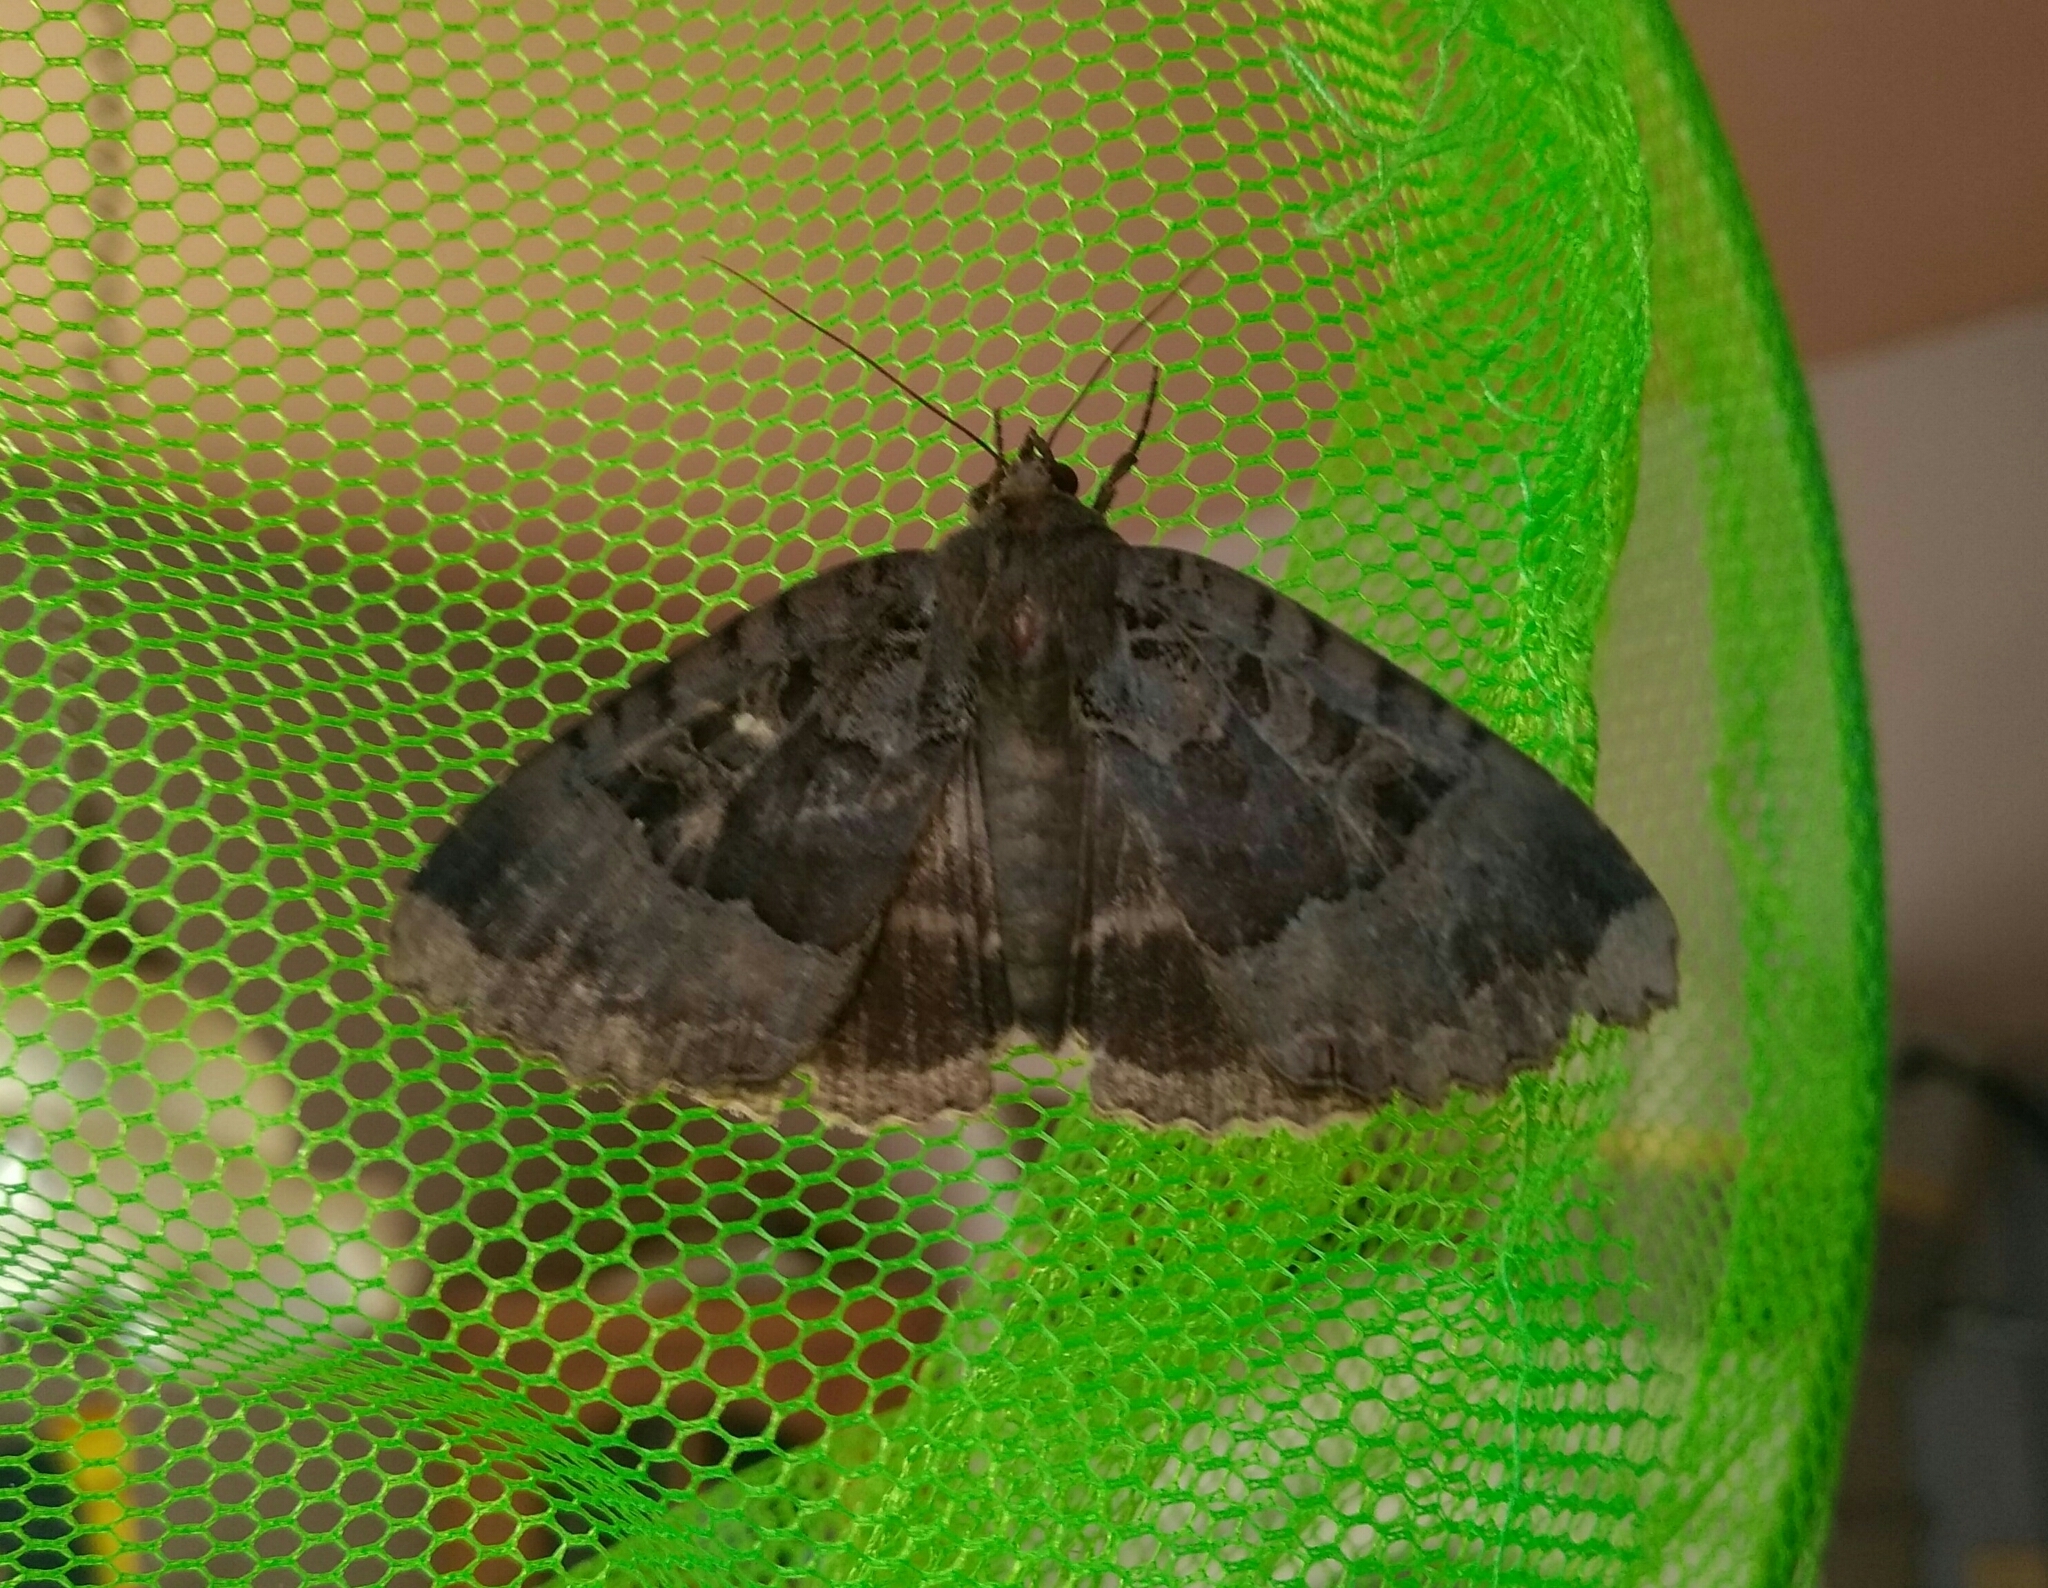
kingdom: Animalia
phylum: Arthropoda
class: Insecta
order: Lepidoptera
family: Noctuidae
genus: Mormo
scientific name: Mormo maura
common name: Old lady
